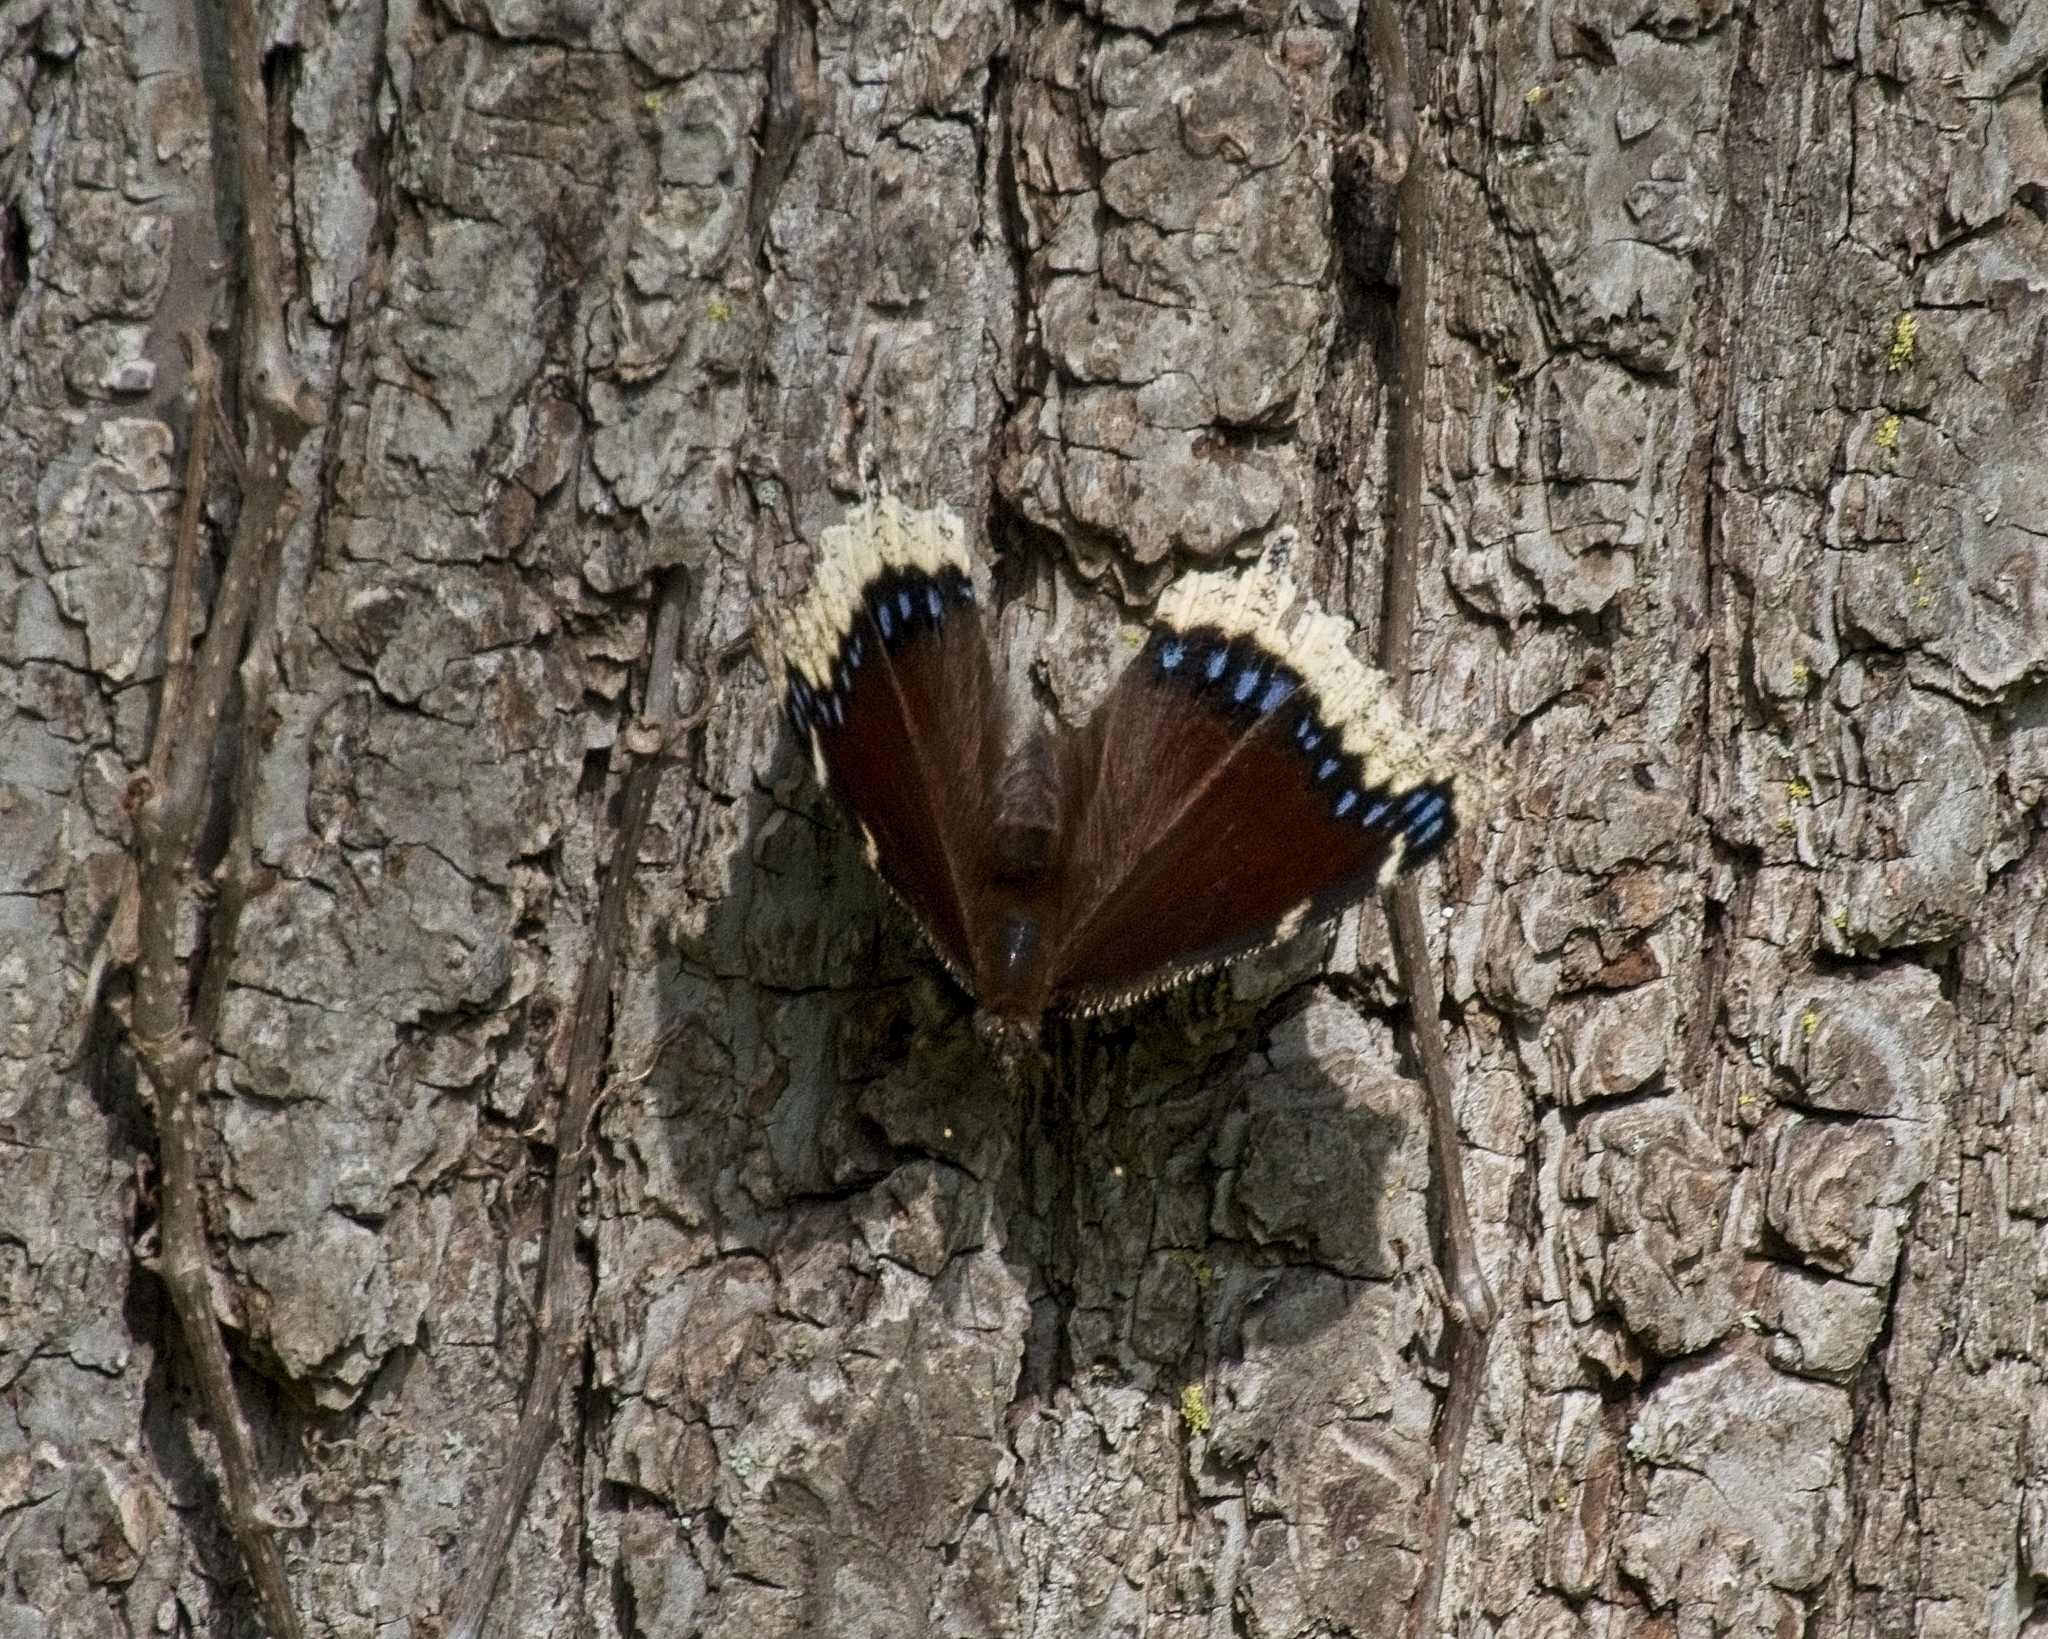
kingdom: Animalia
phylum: Arthropoda
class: Insecta
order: Lepidoptera
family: Nymphalidae
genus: Nymphalis
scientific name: Nymphalis antiopa
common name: Camberwell beauty
